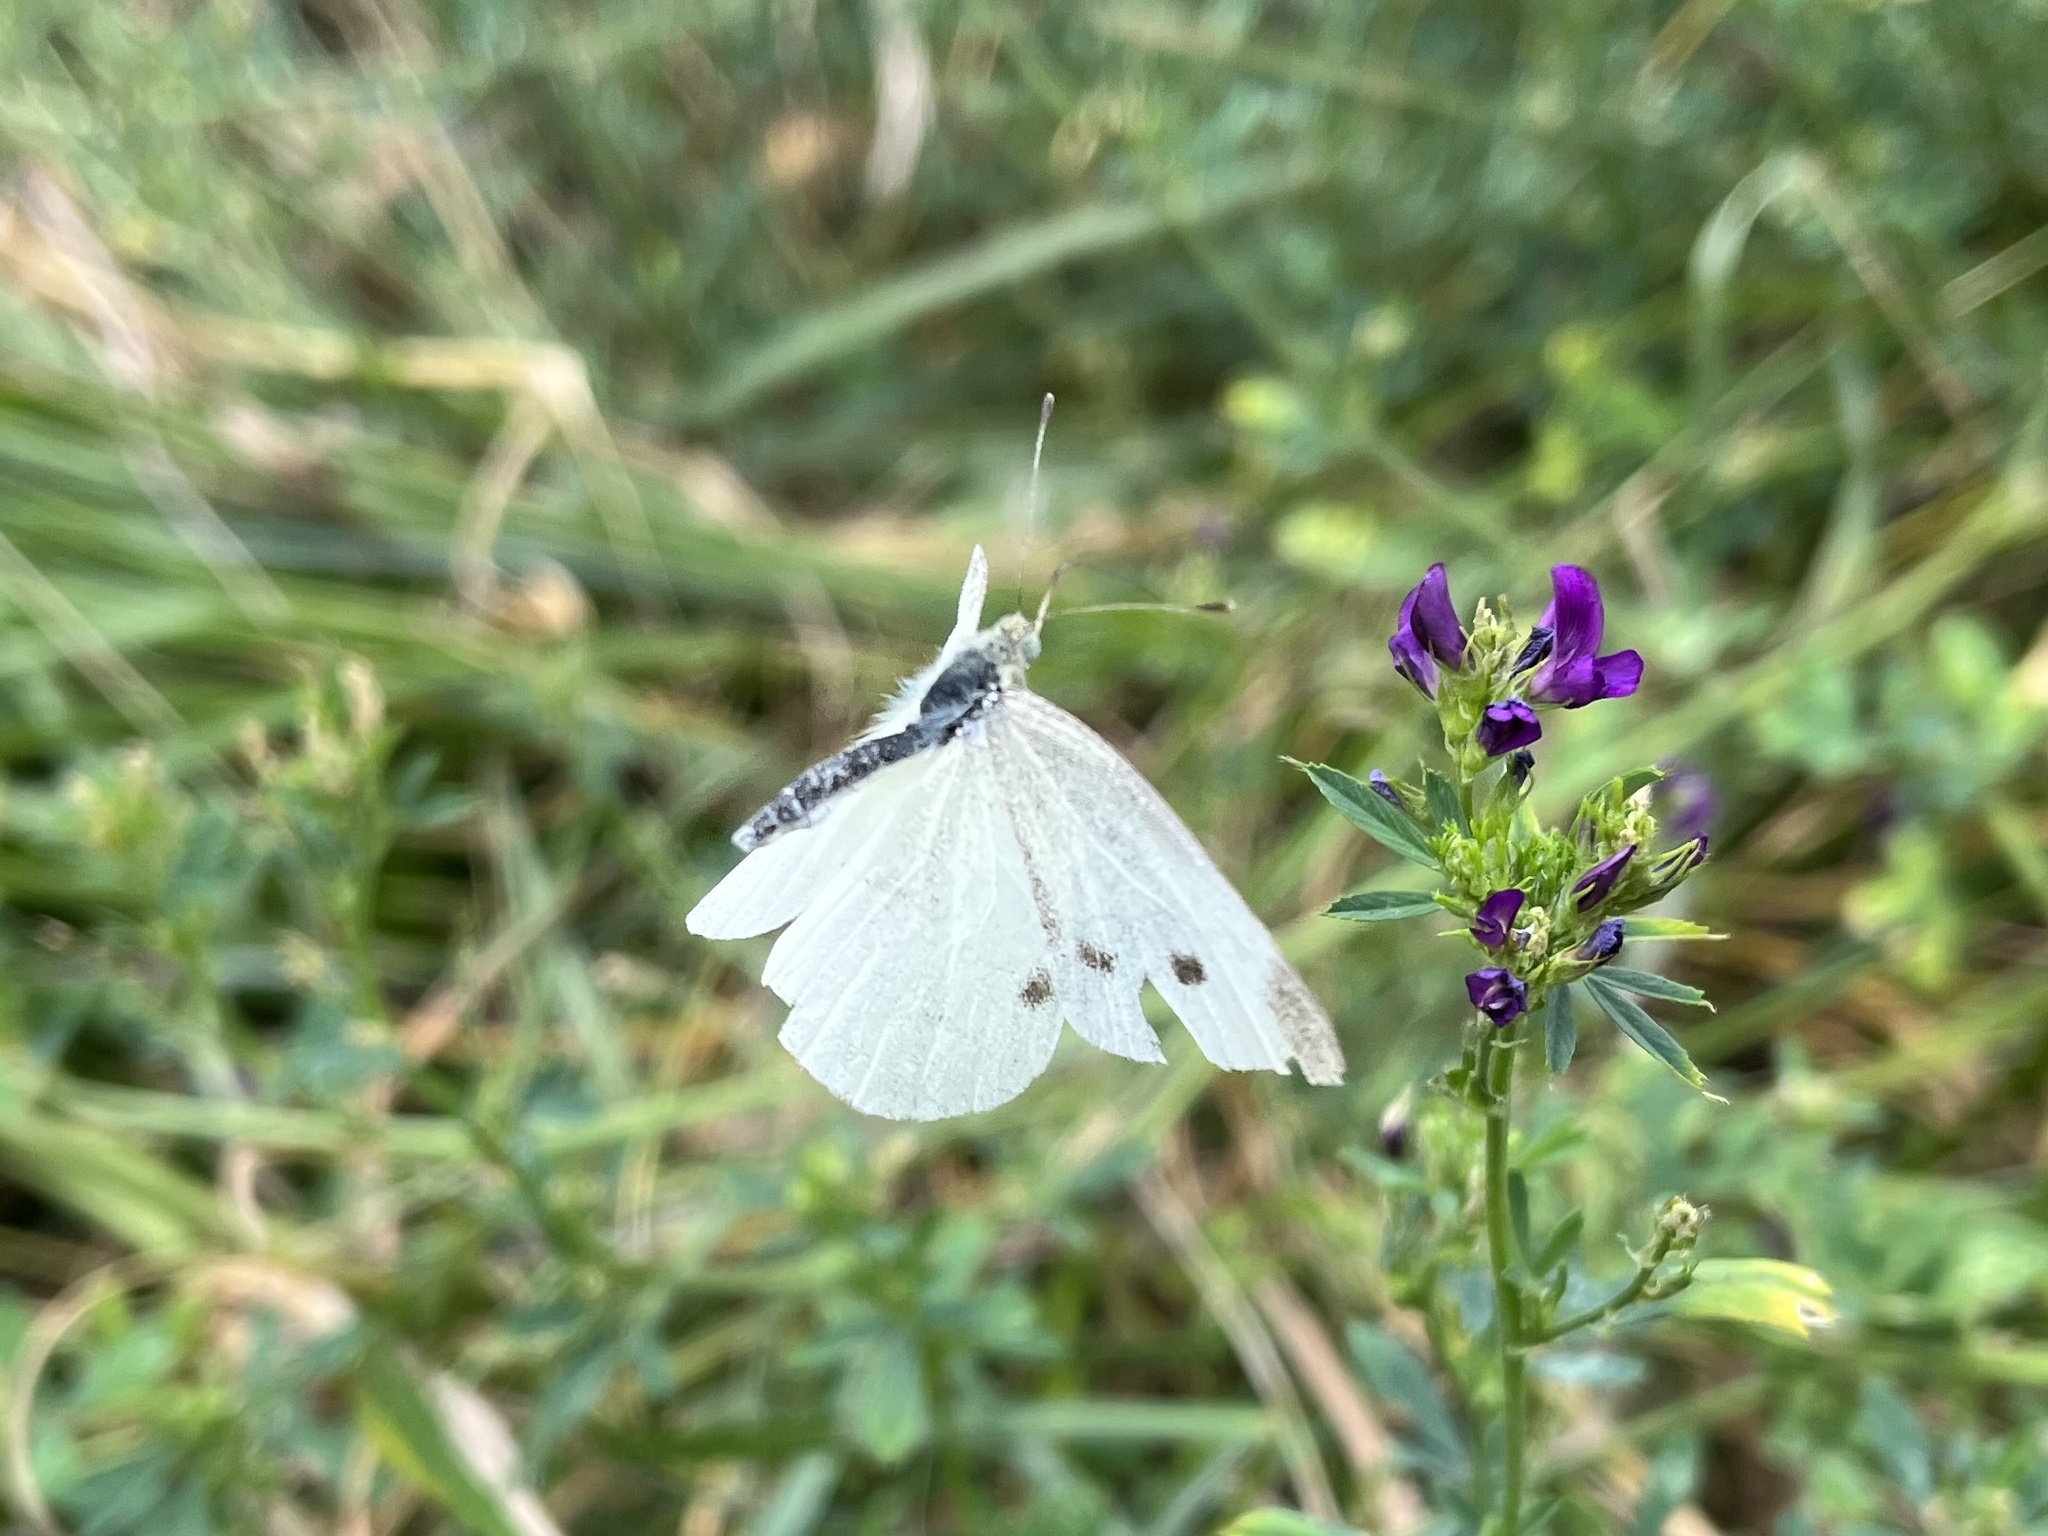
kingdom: Animalia
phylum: Arthropoda
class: Insecta
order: Lepidoptera
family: Pieridae
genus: Pieris
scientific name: Pieris rapae
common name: Small white
